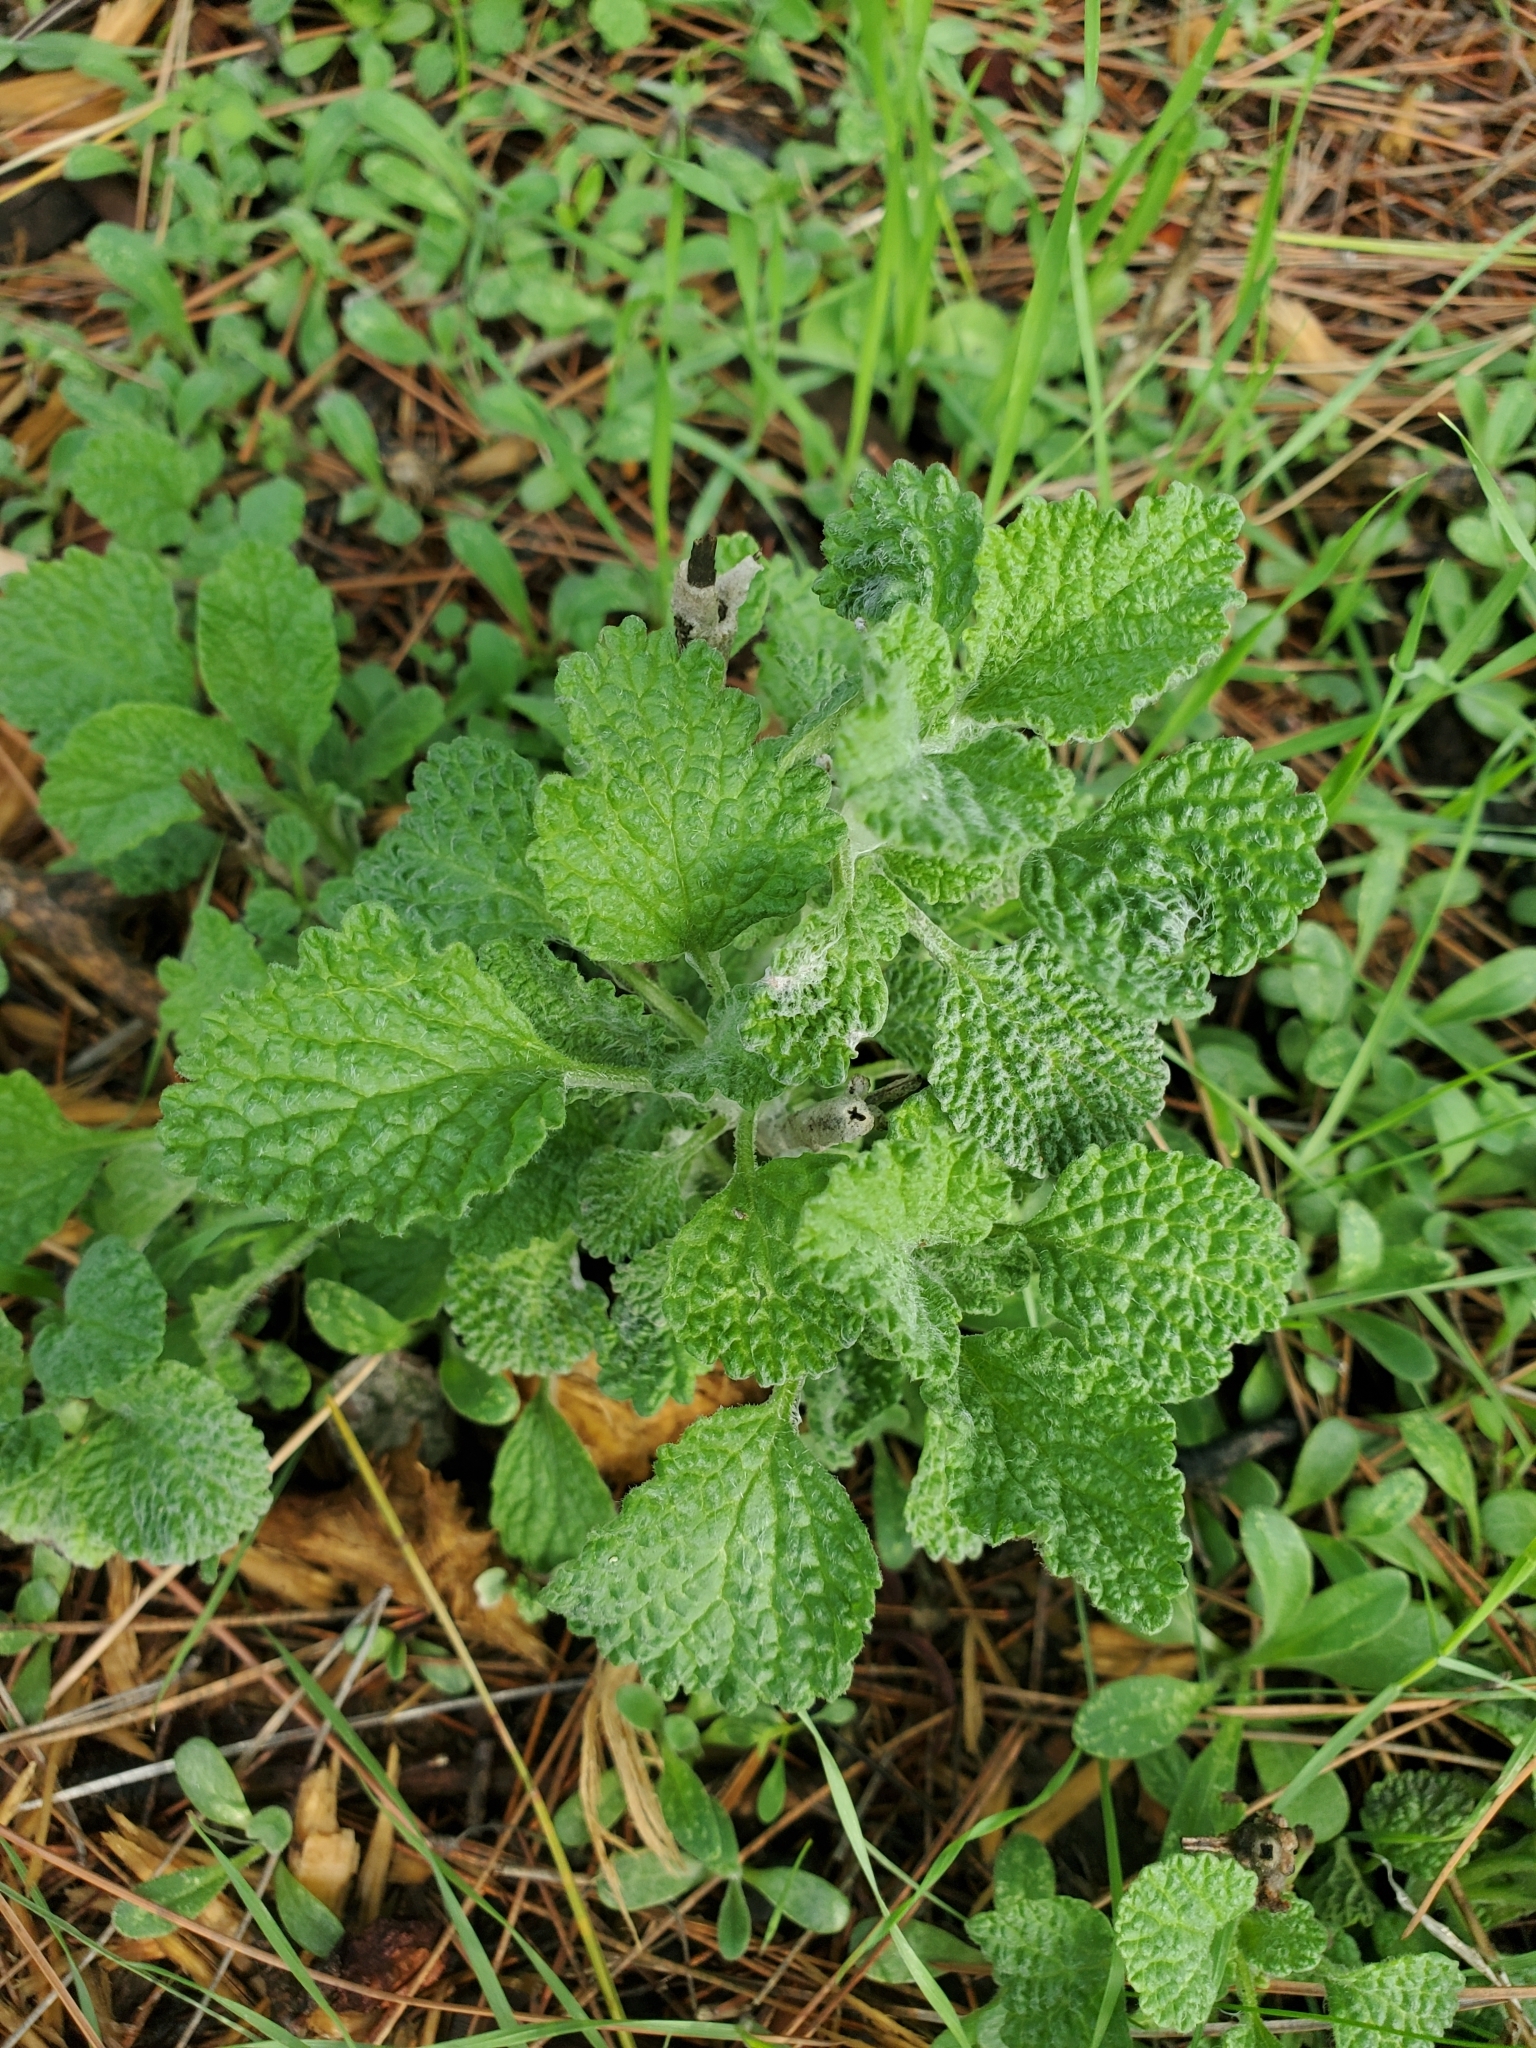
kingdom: Plantae
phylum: Tracheophyta
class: Magnoliopsida
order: Lamiales
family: Lamiaceae
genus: Marrubium
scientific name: Marrubium vulgare
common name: Horehound
